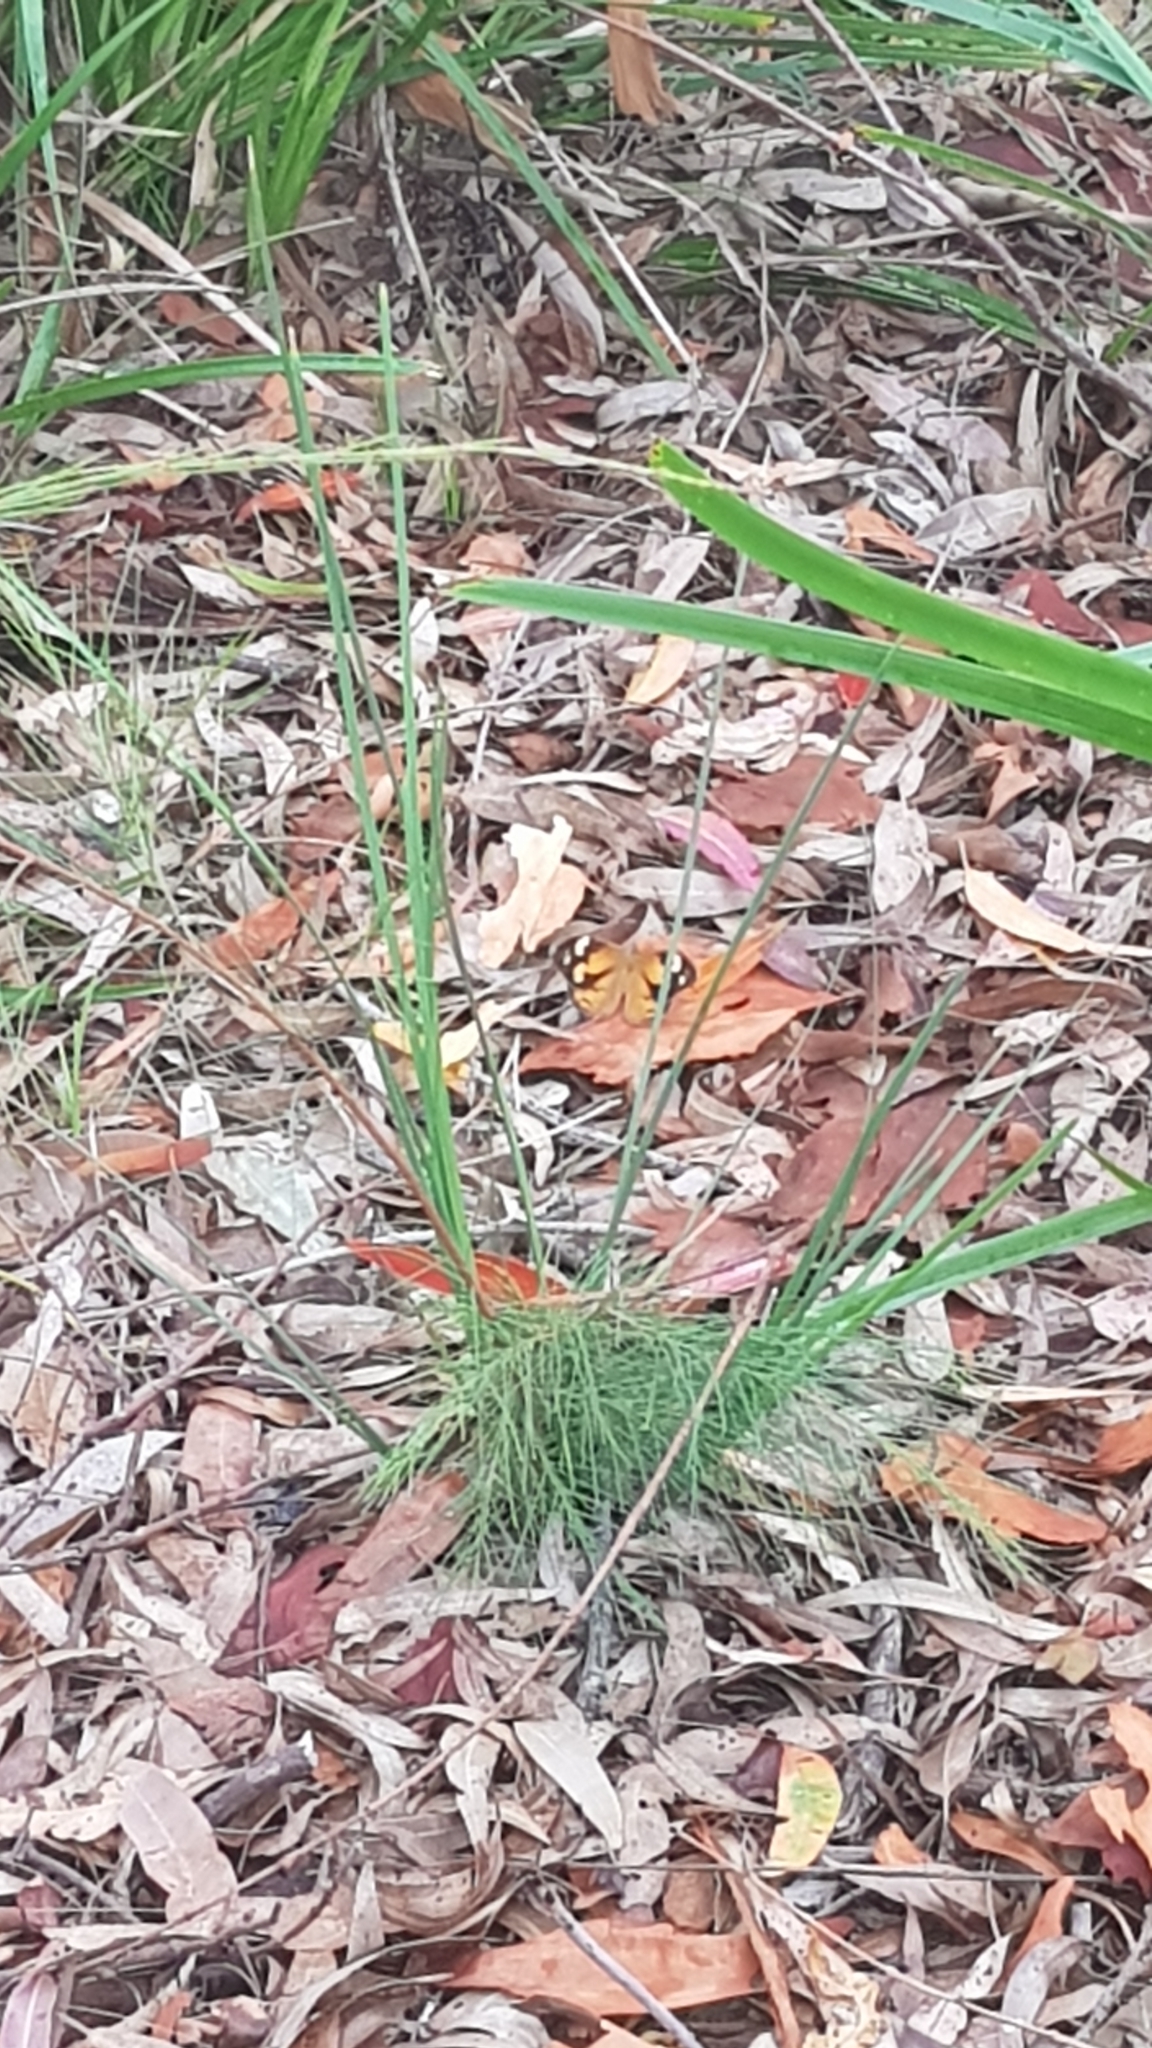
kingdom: Animalia
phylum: Arthropoda
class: Insecta
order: Lepidoptera
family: Nymphalidae
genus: Heteronympha
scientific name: Heteronympha merope
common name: Common brown
